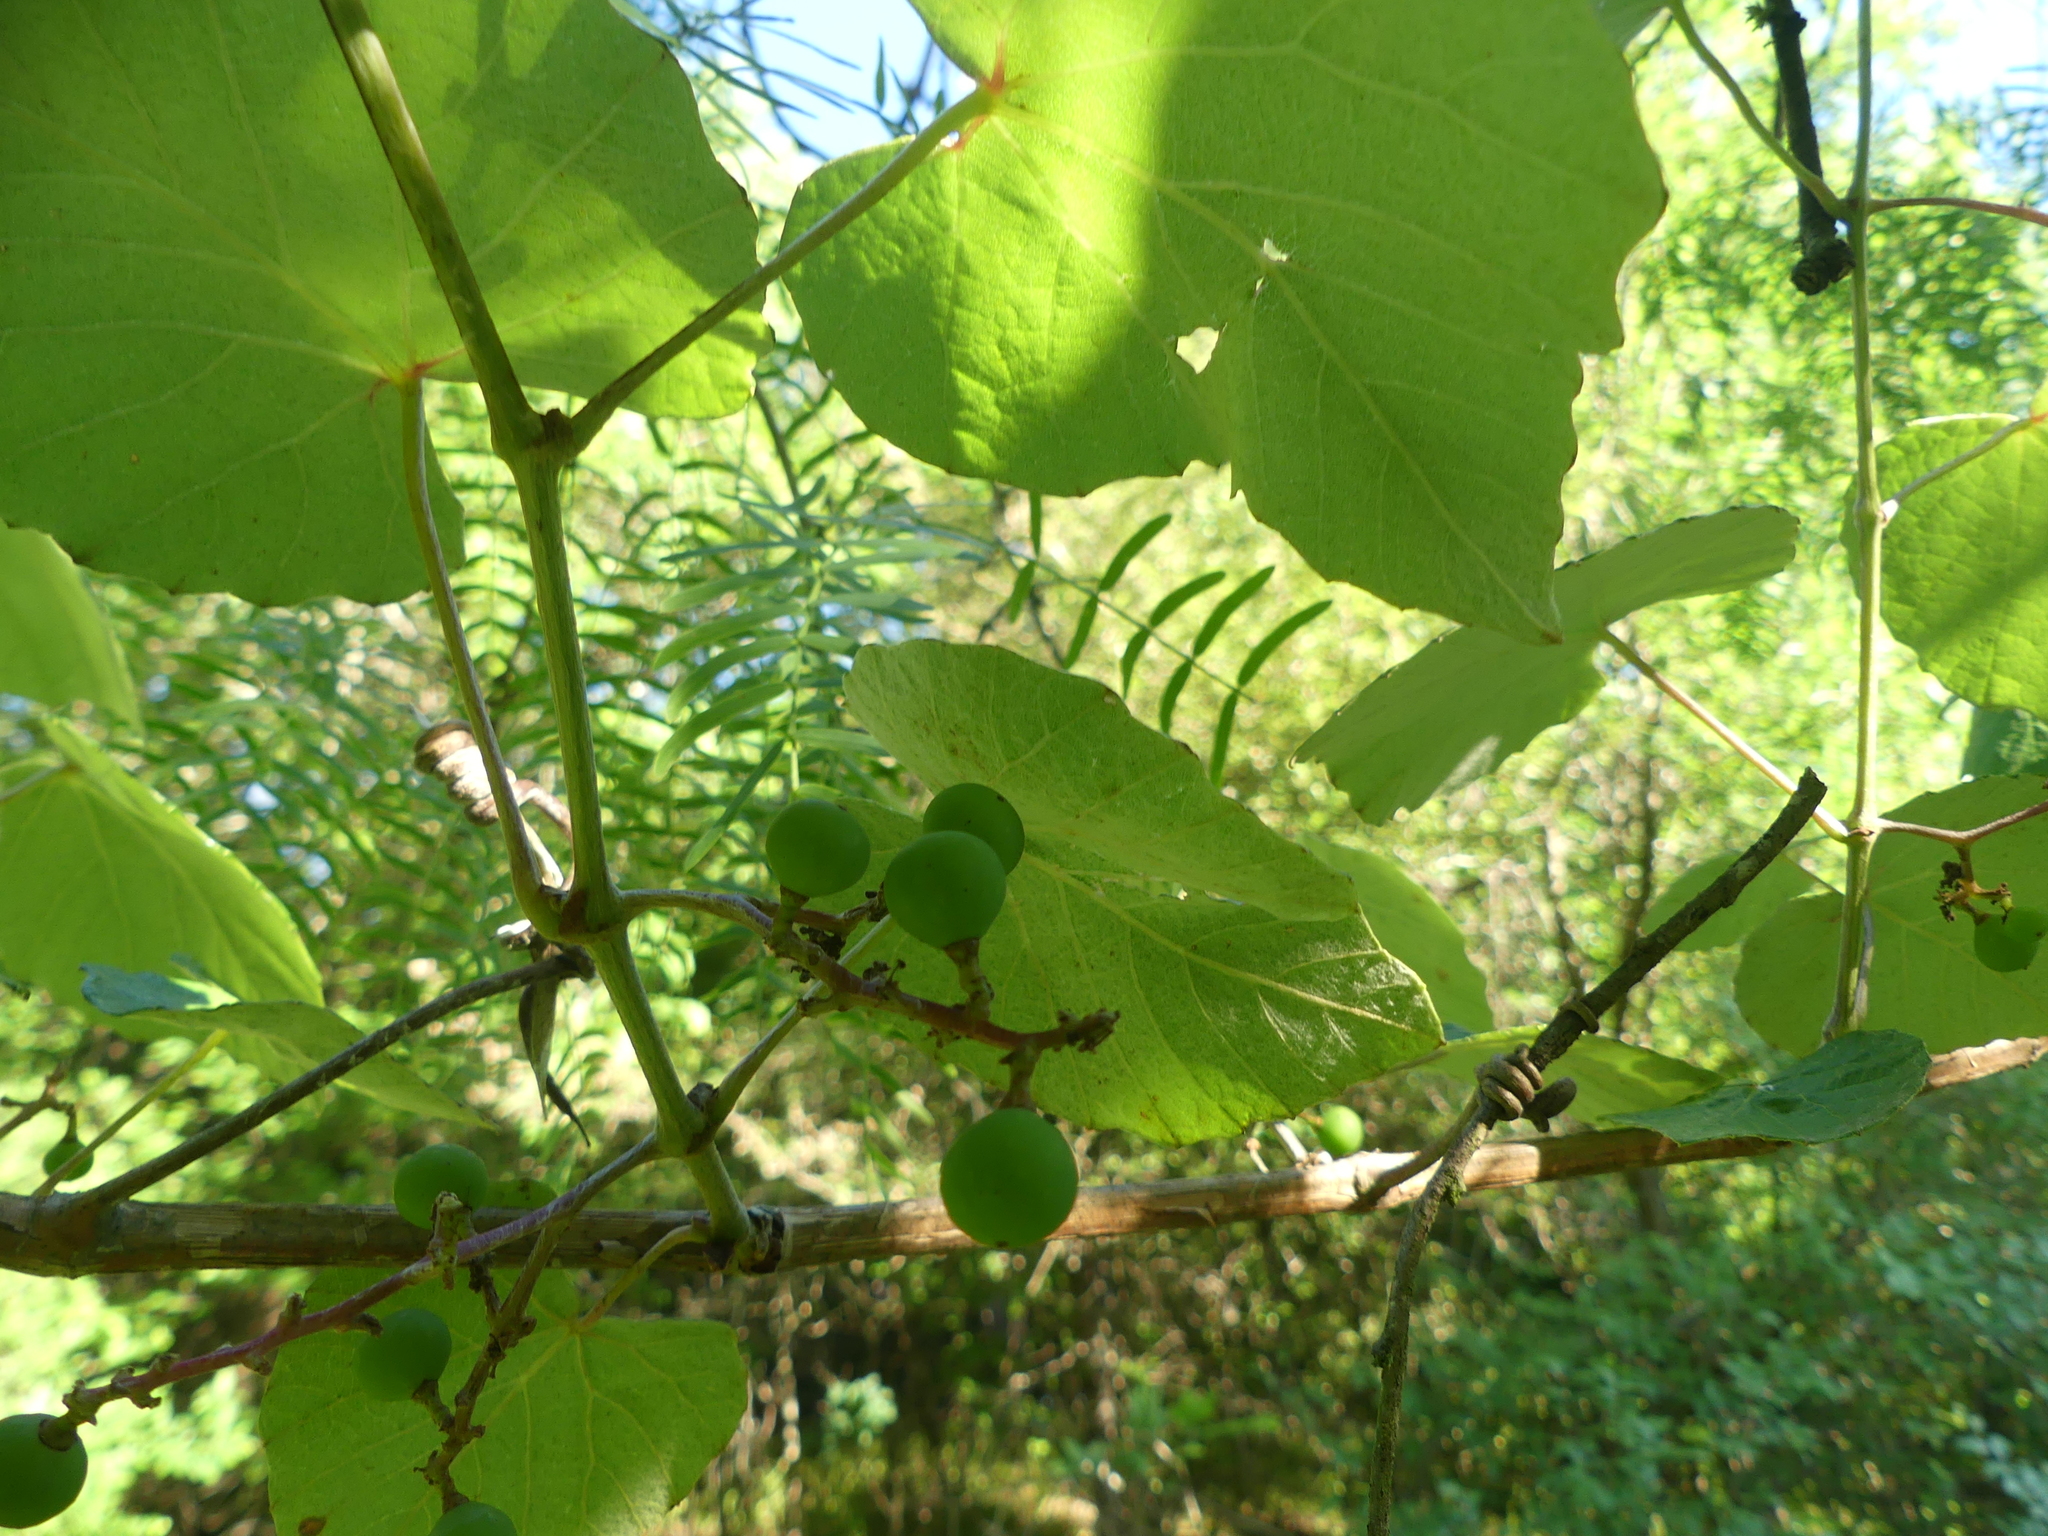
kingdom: Plantae
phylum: Tracheophyta
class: Magnoliopsida
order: Vitales
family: Vitaceae
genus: Vitis
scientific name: Vitis mustangensis
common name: Mustang grape
